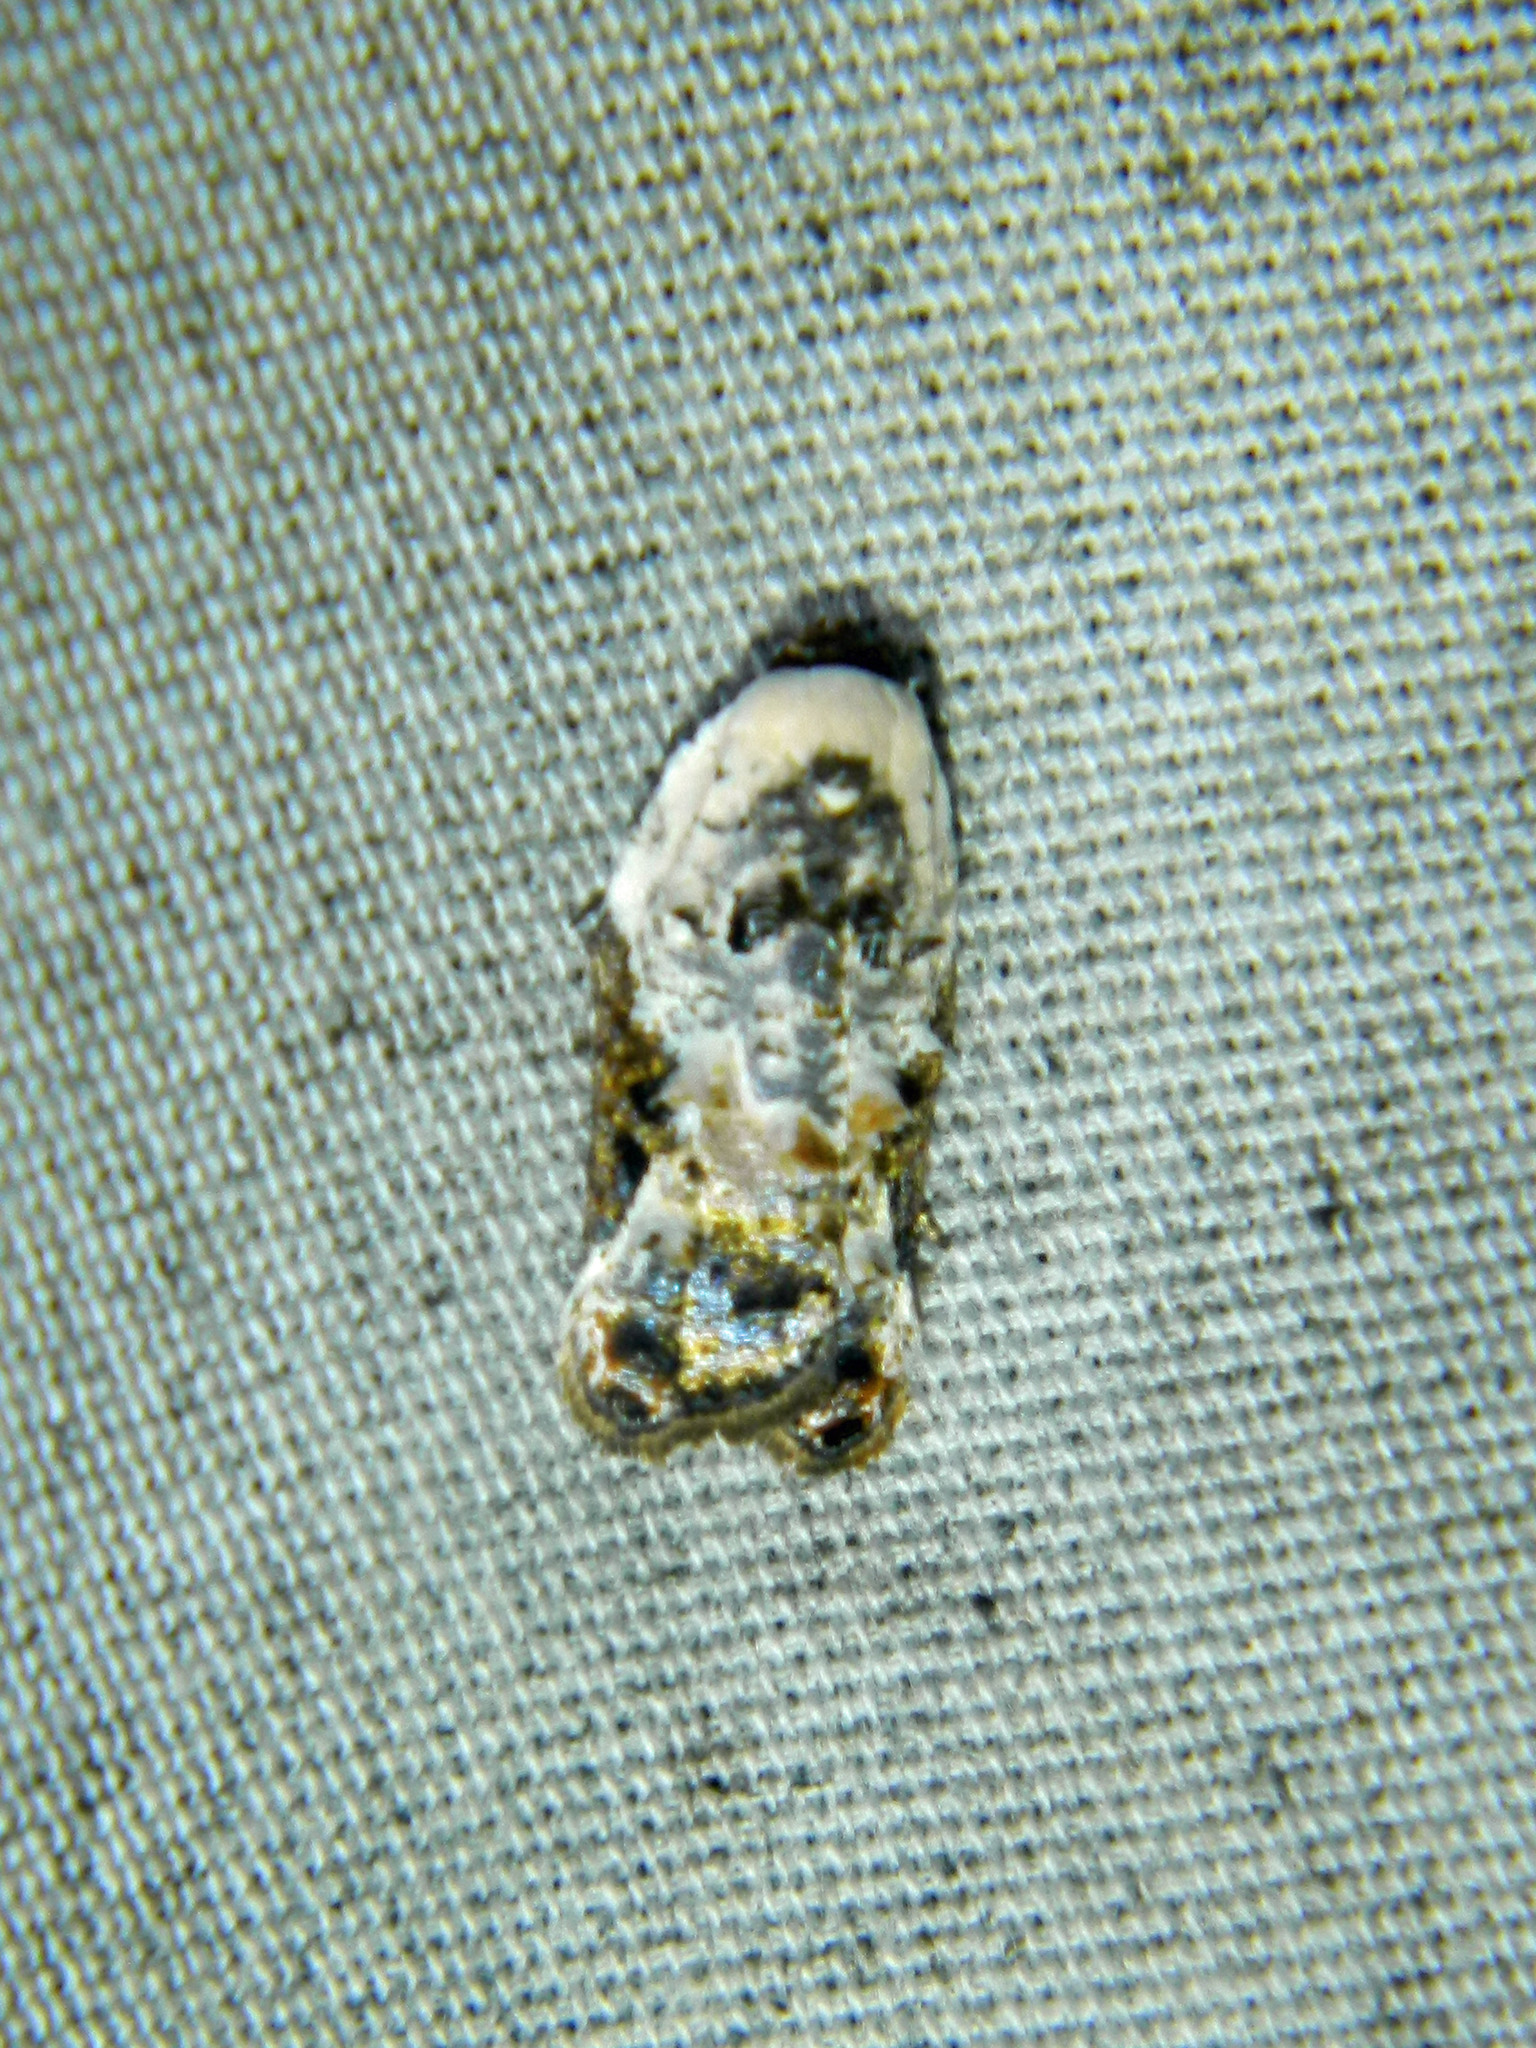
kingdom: Animalia
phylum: Arthropoda
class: Insecta
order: Lepidoptera
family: Tortricidae
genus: Acleris
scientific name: Acleris nivisellana
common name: Snowy-shouldered acleris moth
